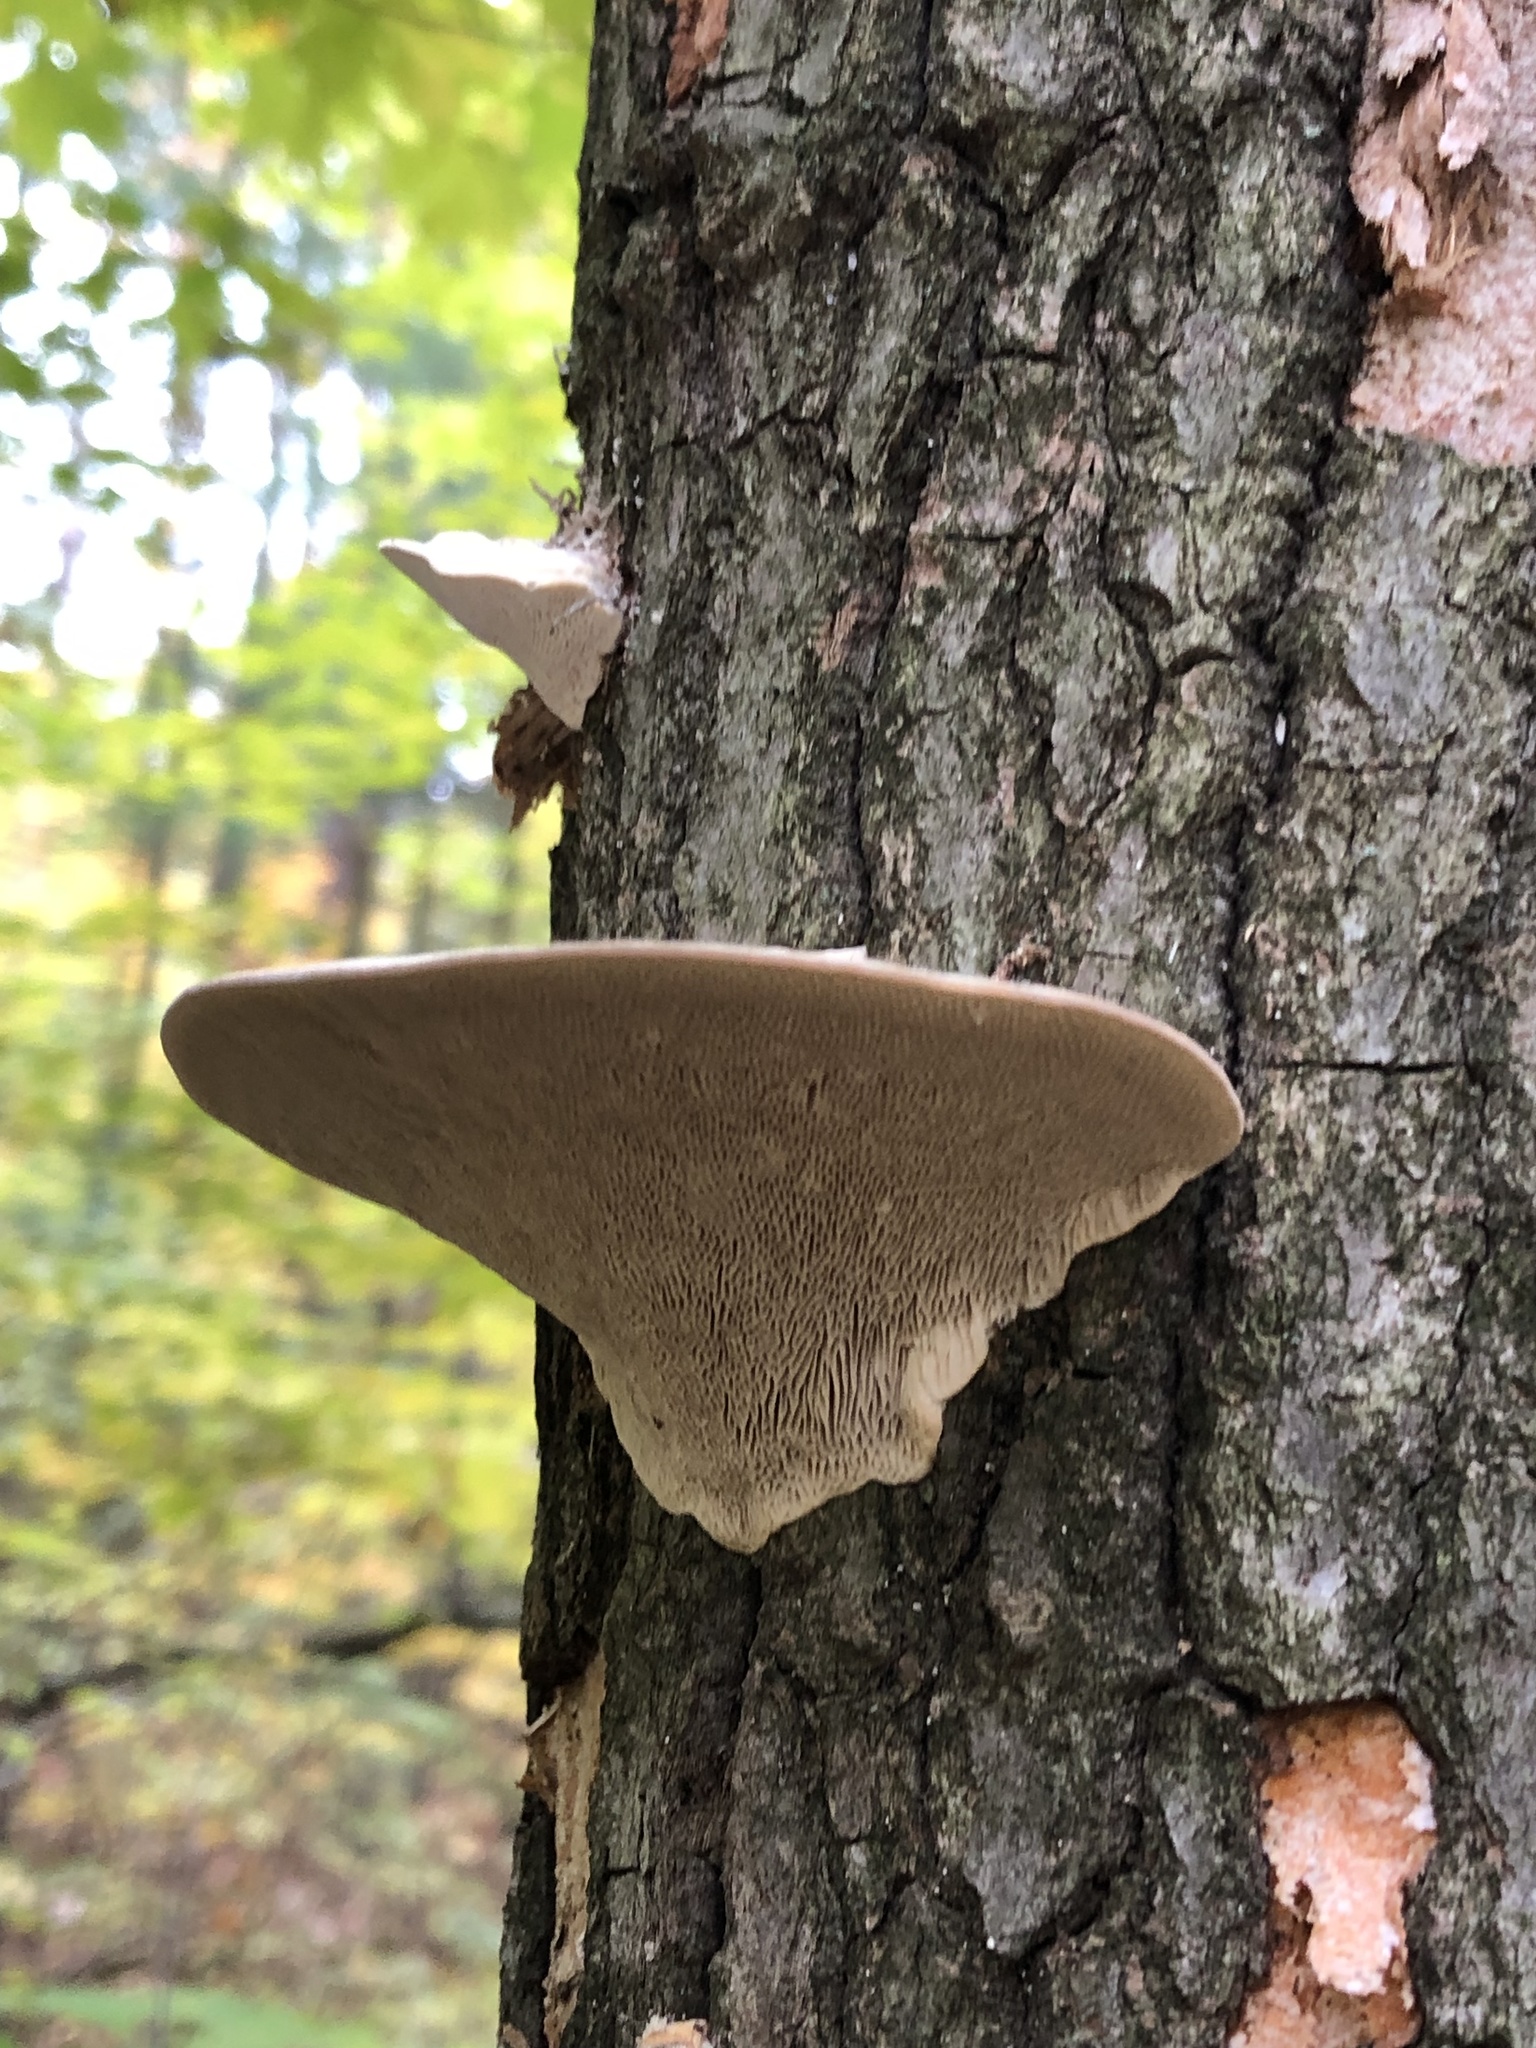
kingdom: Fungi
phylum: Basidiomycota
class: Agaricomycetes
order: Polyporales
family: Polyporaceae
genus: Trametes
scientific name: Trametes gibbosa
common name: Lumpy bracket
